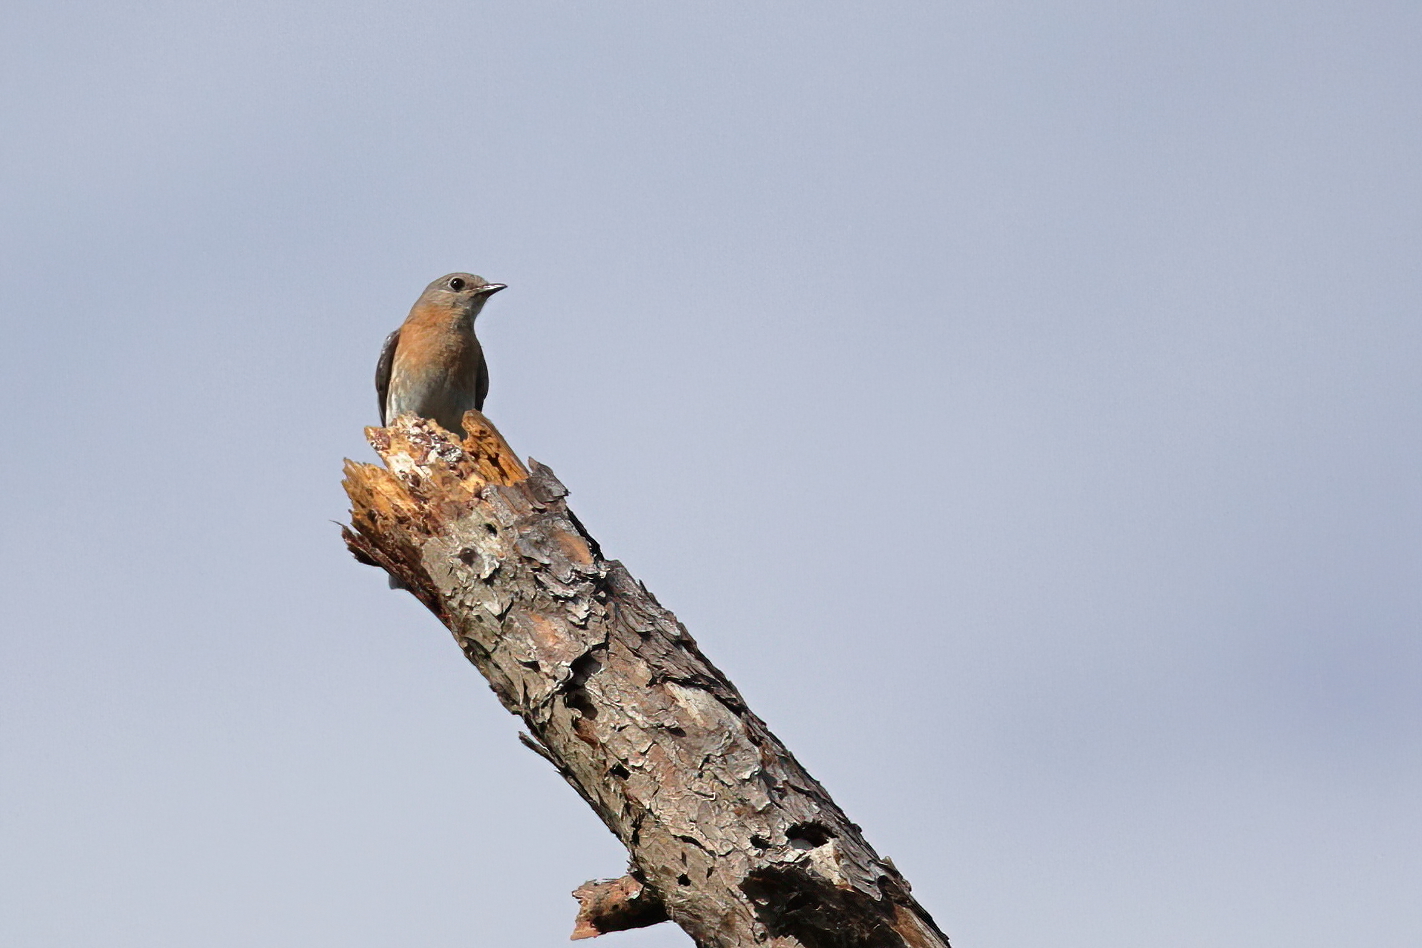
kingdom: Animalia
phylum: Chordata
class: Aves
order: Passeriformes
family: Turdidae
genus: Sialia
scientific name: Sialia sialis
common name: Eastern bluebird
